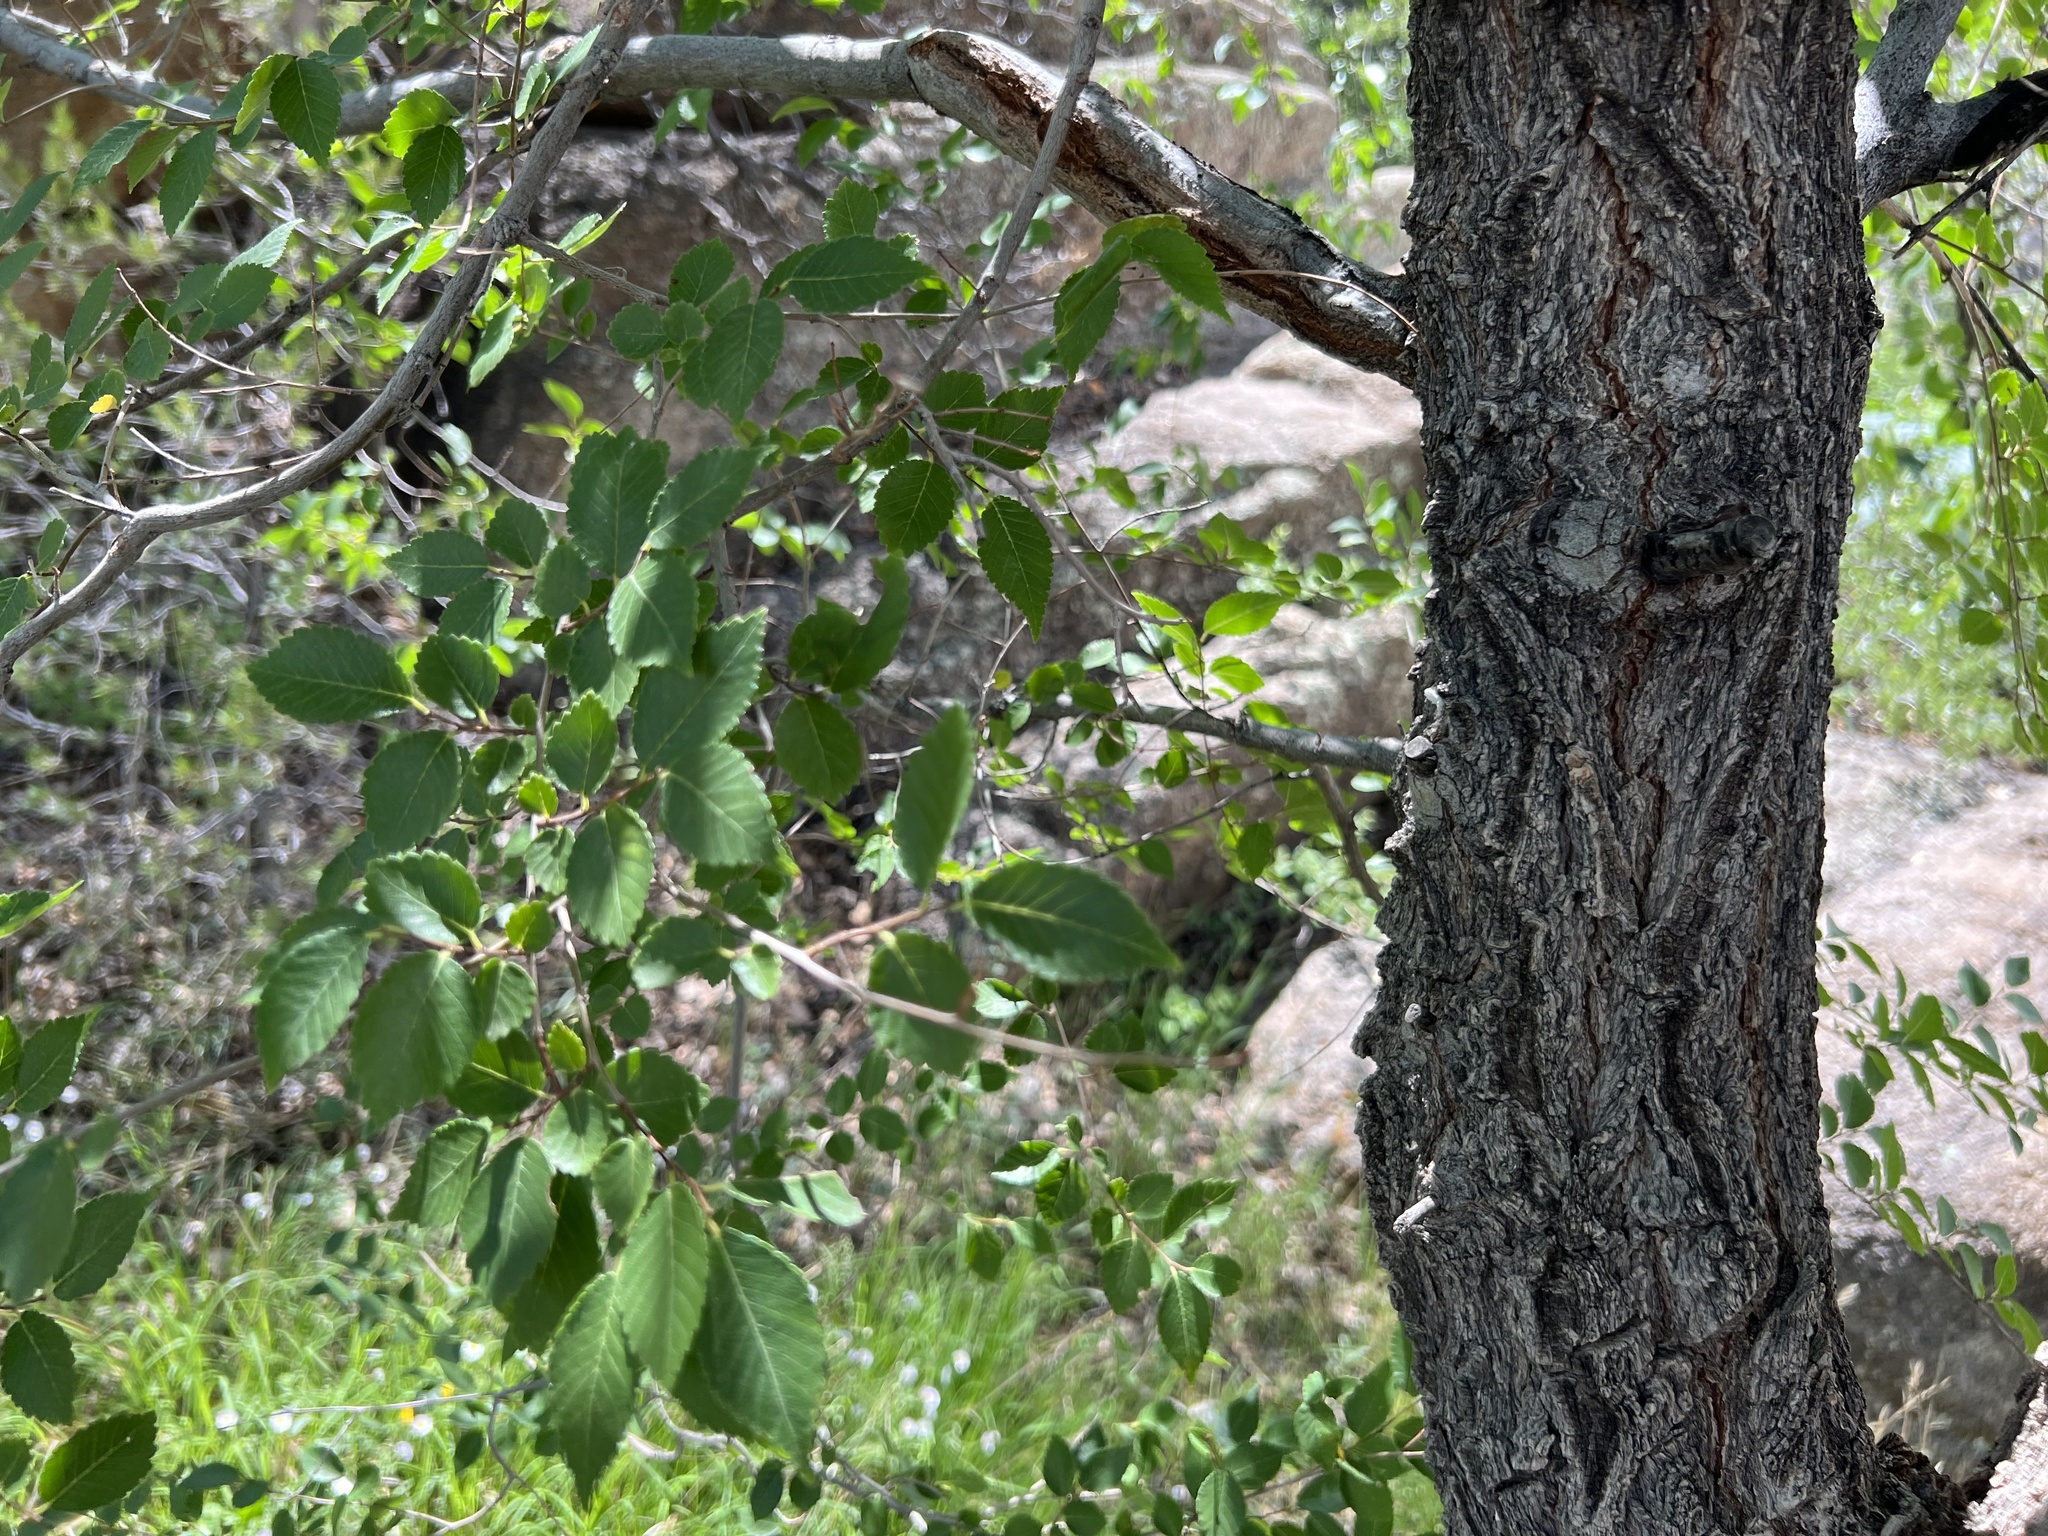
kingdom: Plantae
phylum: Tracheophyta
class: Magnoliopsida
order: Rosales
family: Ulmaceae
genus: Ulmus
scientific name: Ulmus pumila
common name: Siberian elm
